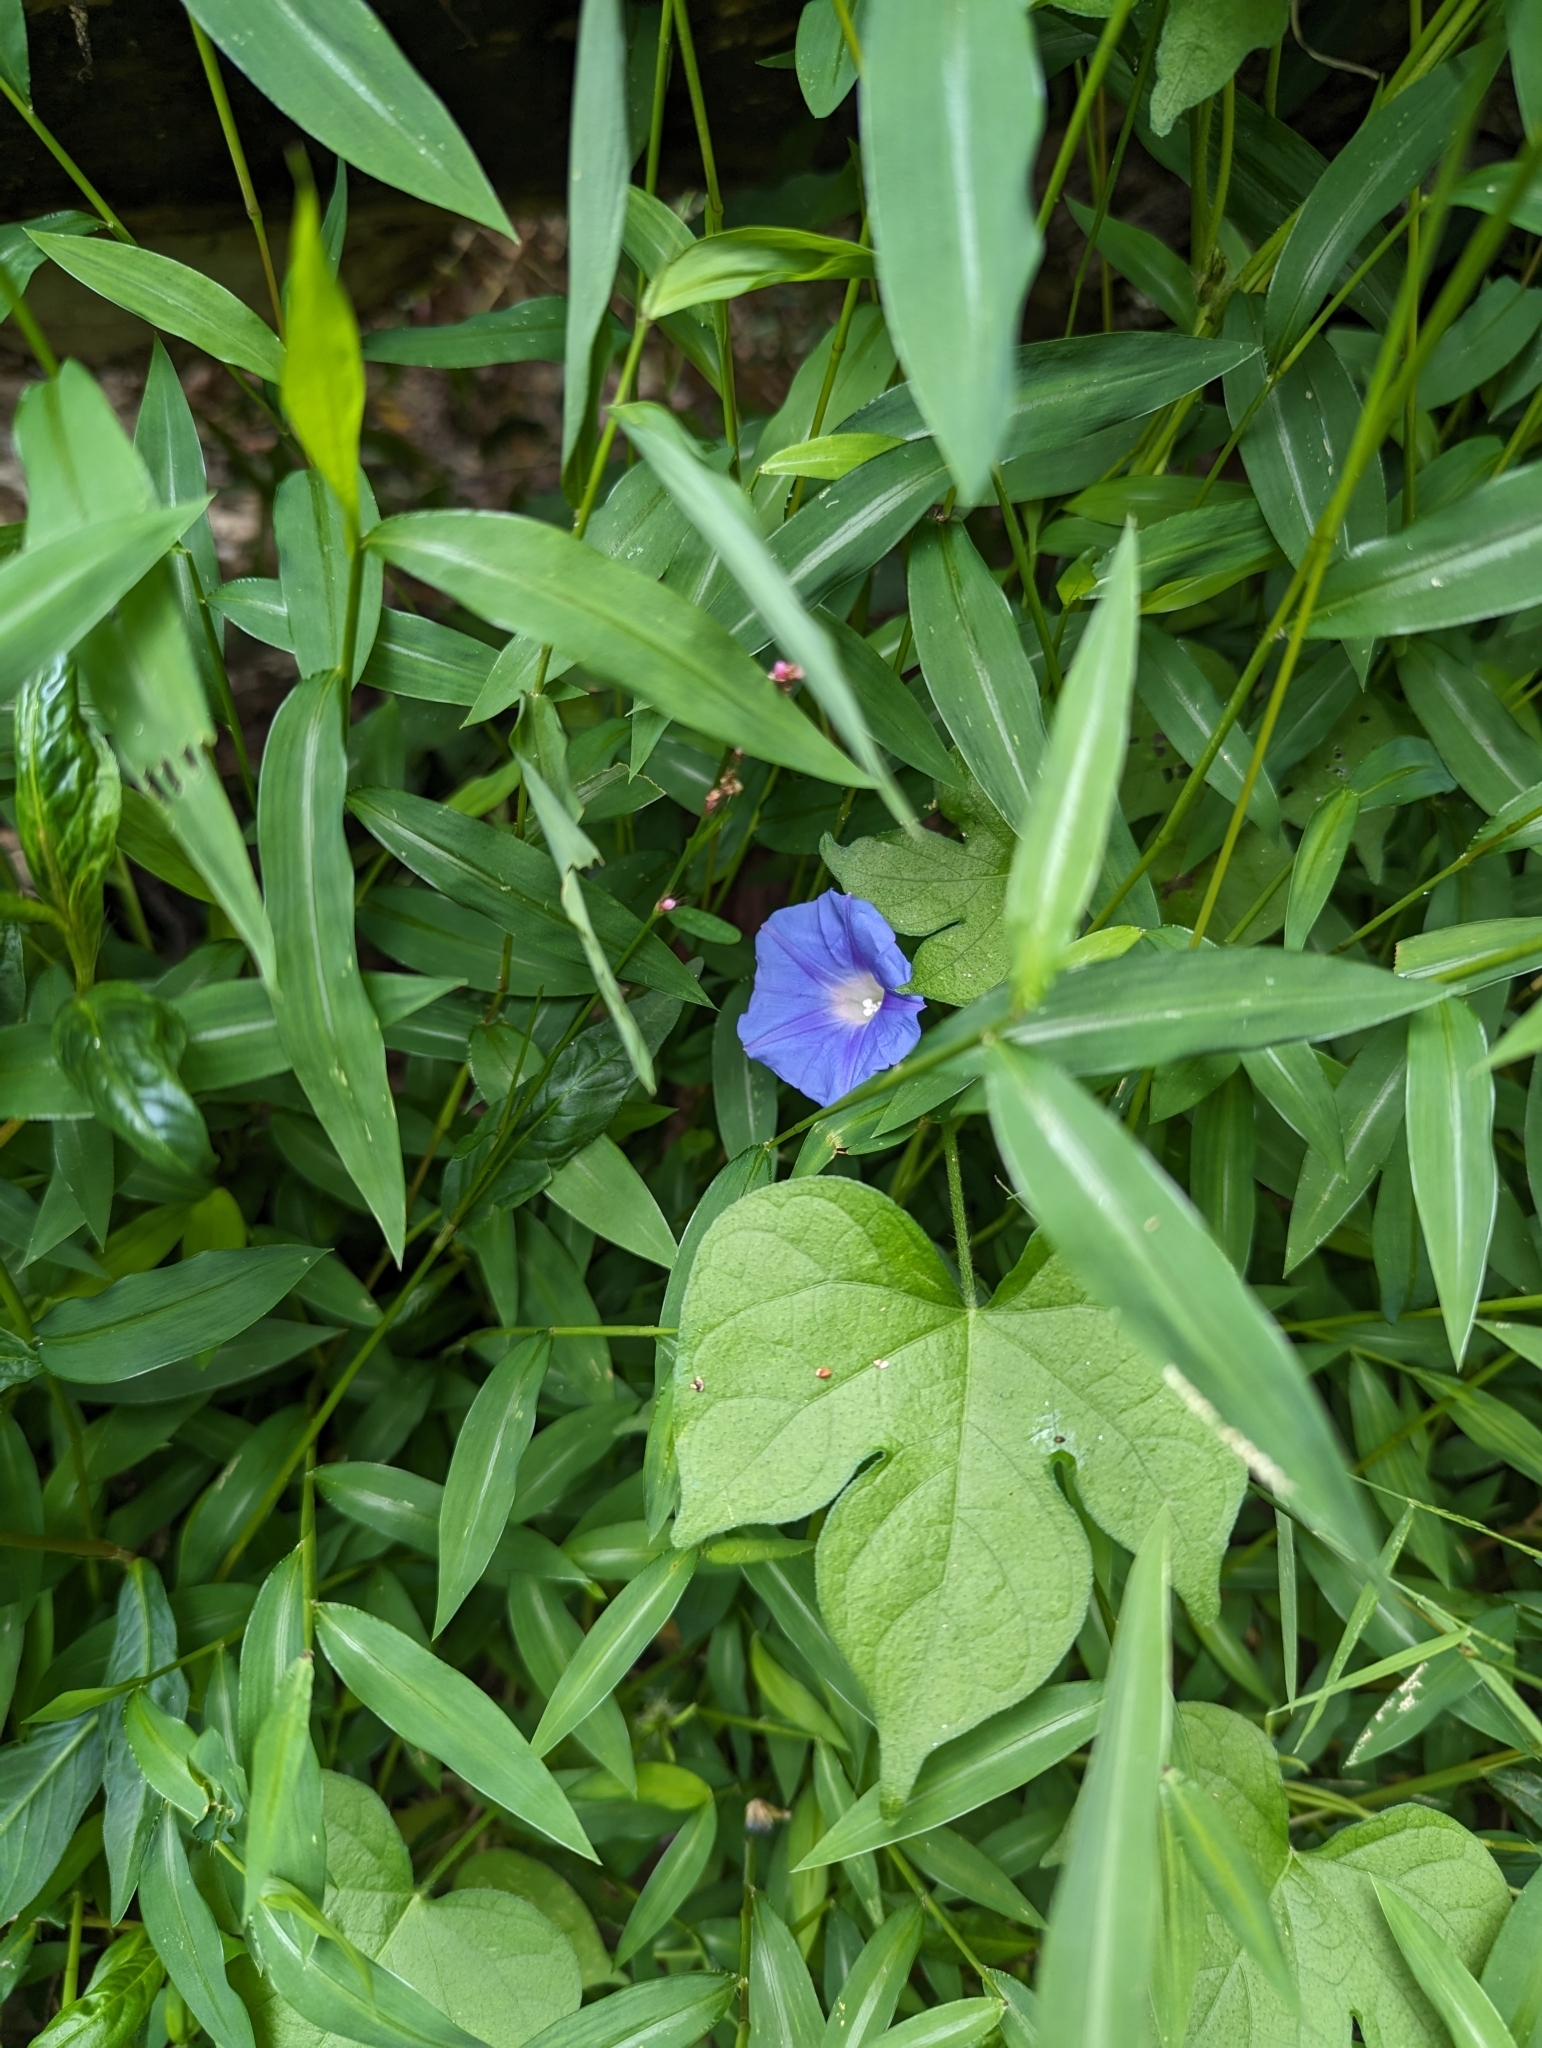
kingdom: Plantae
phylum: Tracheophyta
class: Magnoliopsida
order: Solanales
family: Convolvulaceae
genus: Ipomoea
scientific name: Ipomoea hederacea
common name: Ivy-leaved morning-glory
